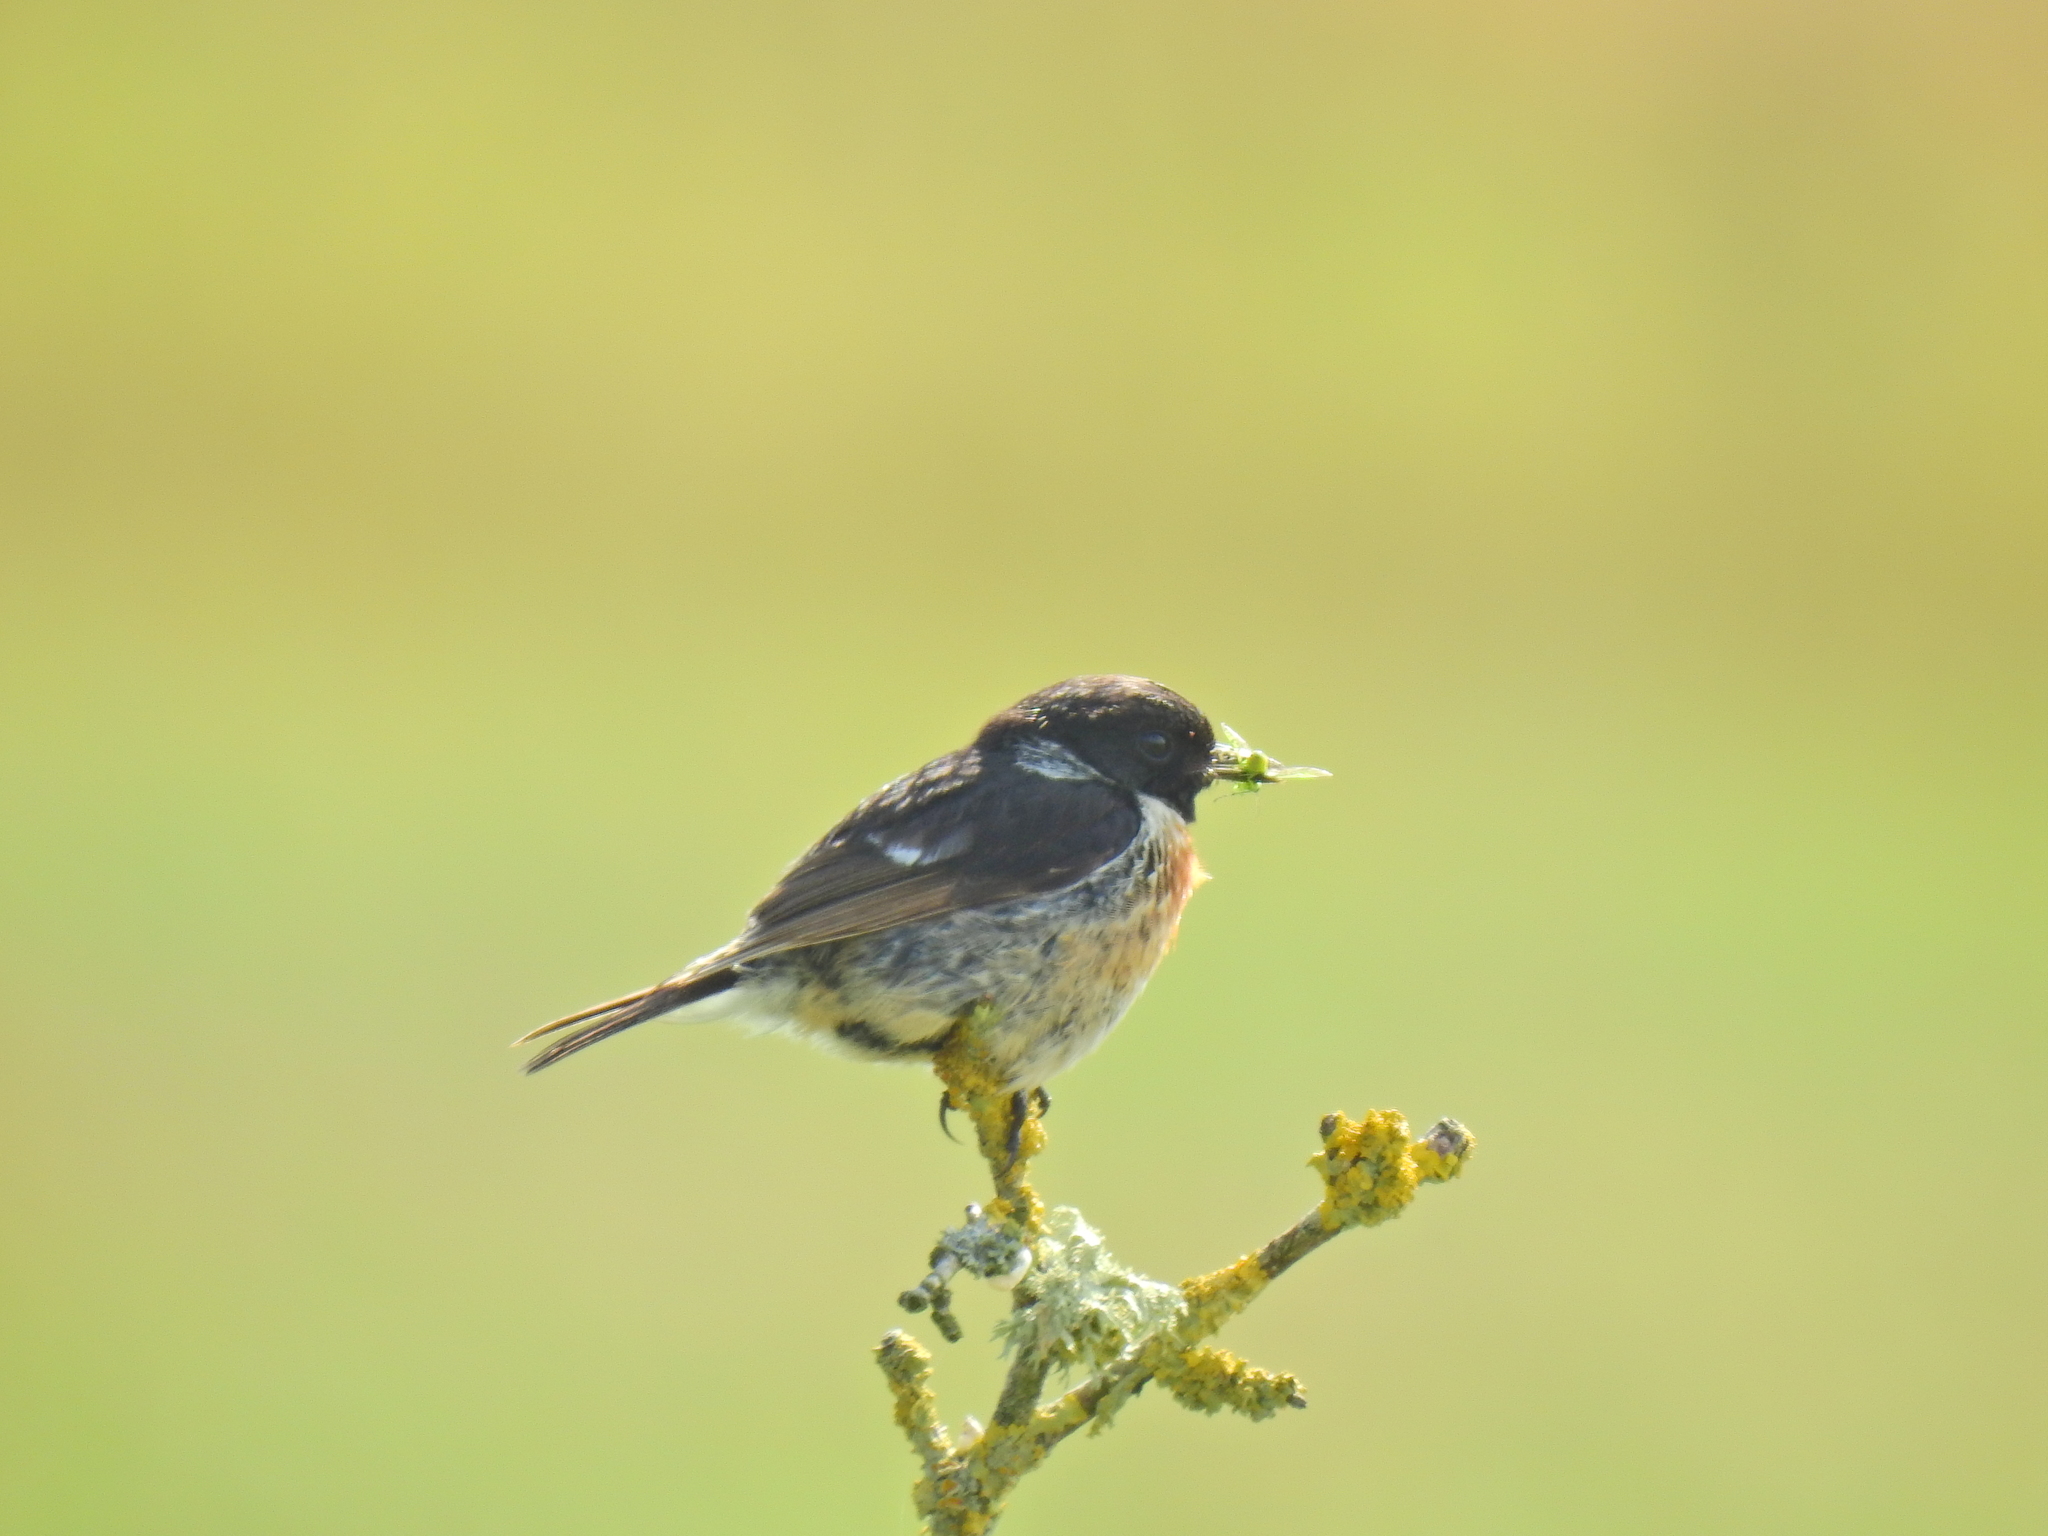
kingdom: Animalia
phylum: Chordata
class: Aves
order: Passeriformes
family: Muscicapidae
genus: Saxicola
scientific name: Saxicola rubicola
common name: European stonechat
